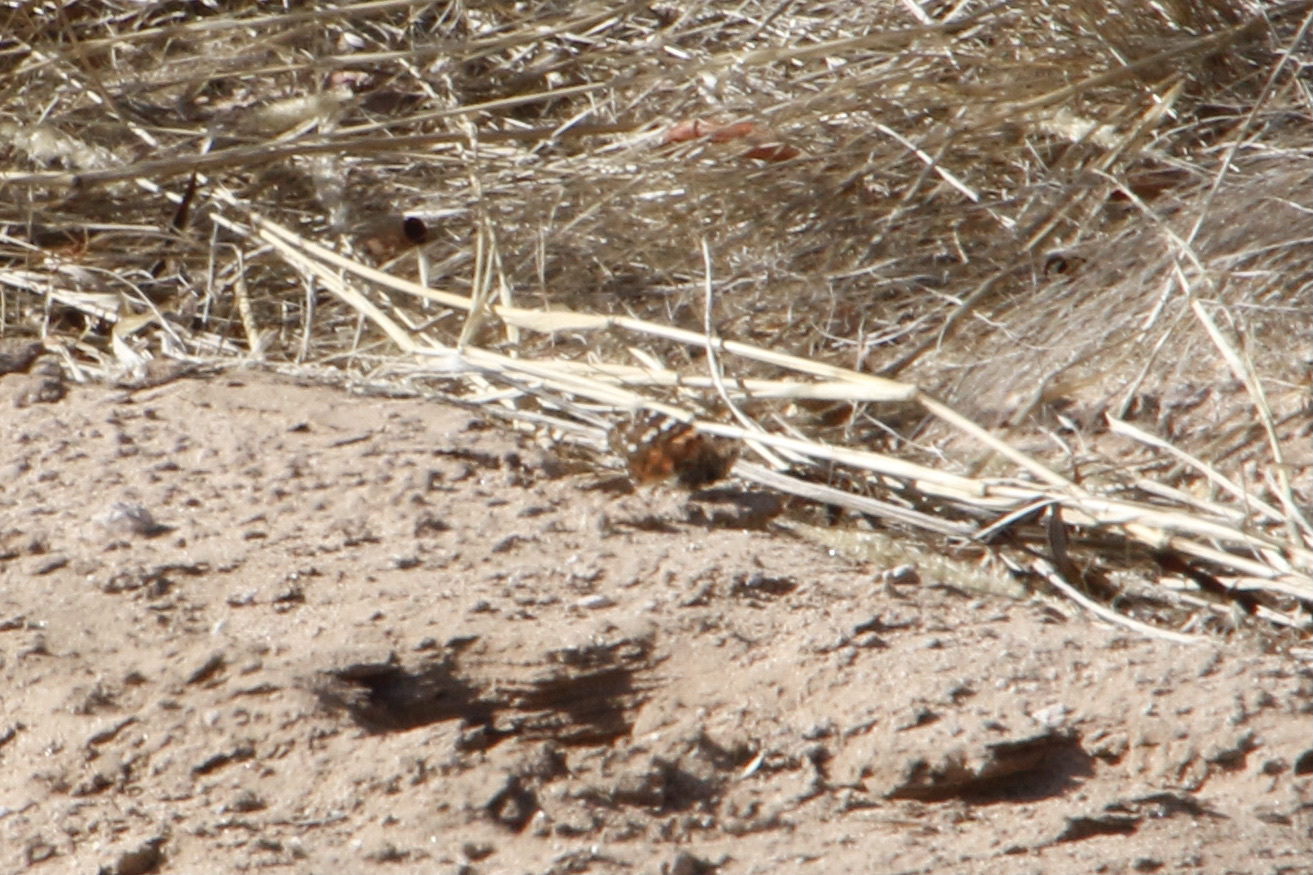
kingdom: Animalia
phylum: Arthropoda
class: Insecta
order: Lepidoptera
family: Nymphalidae
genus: Vanessa
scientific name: Vanessa cardui
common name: Painted lady
